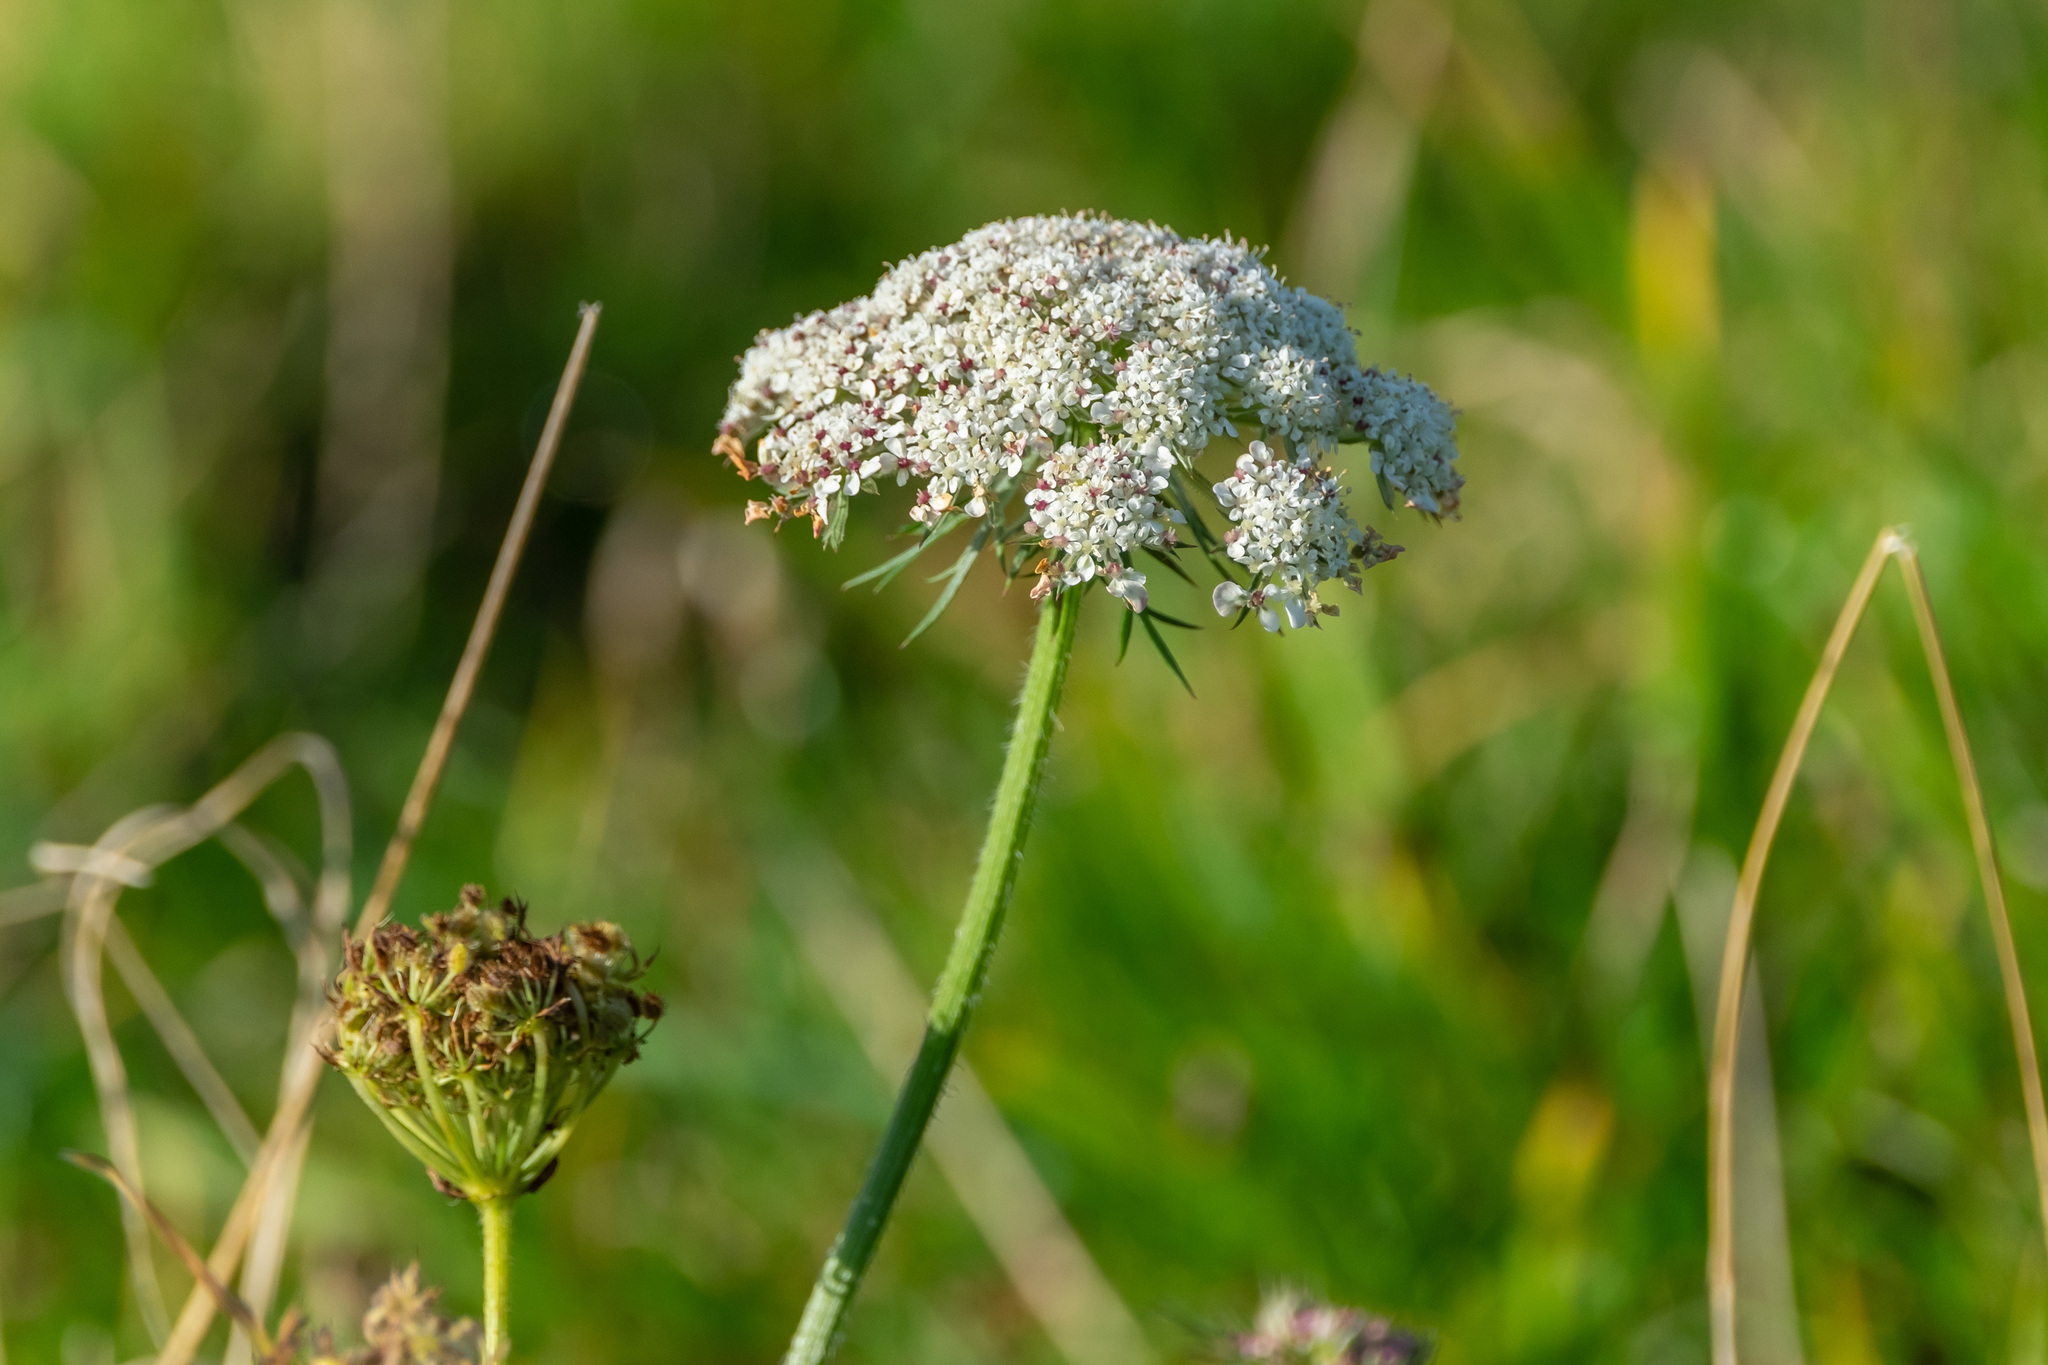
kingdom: Plantae
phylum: Tracheophyta
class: Magnoliopsida
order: Apiales
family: Apiaceae
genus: Daucus
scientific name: Daucus carota
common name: Wild carrot
